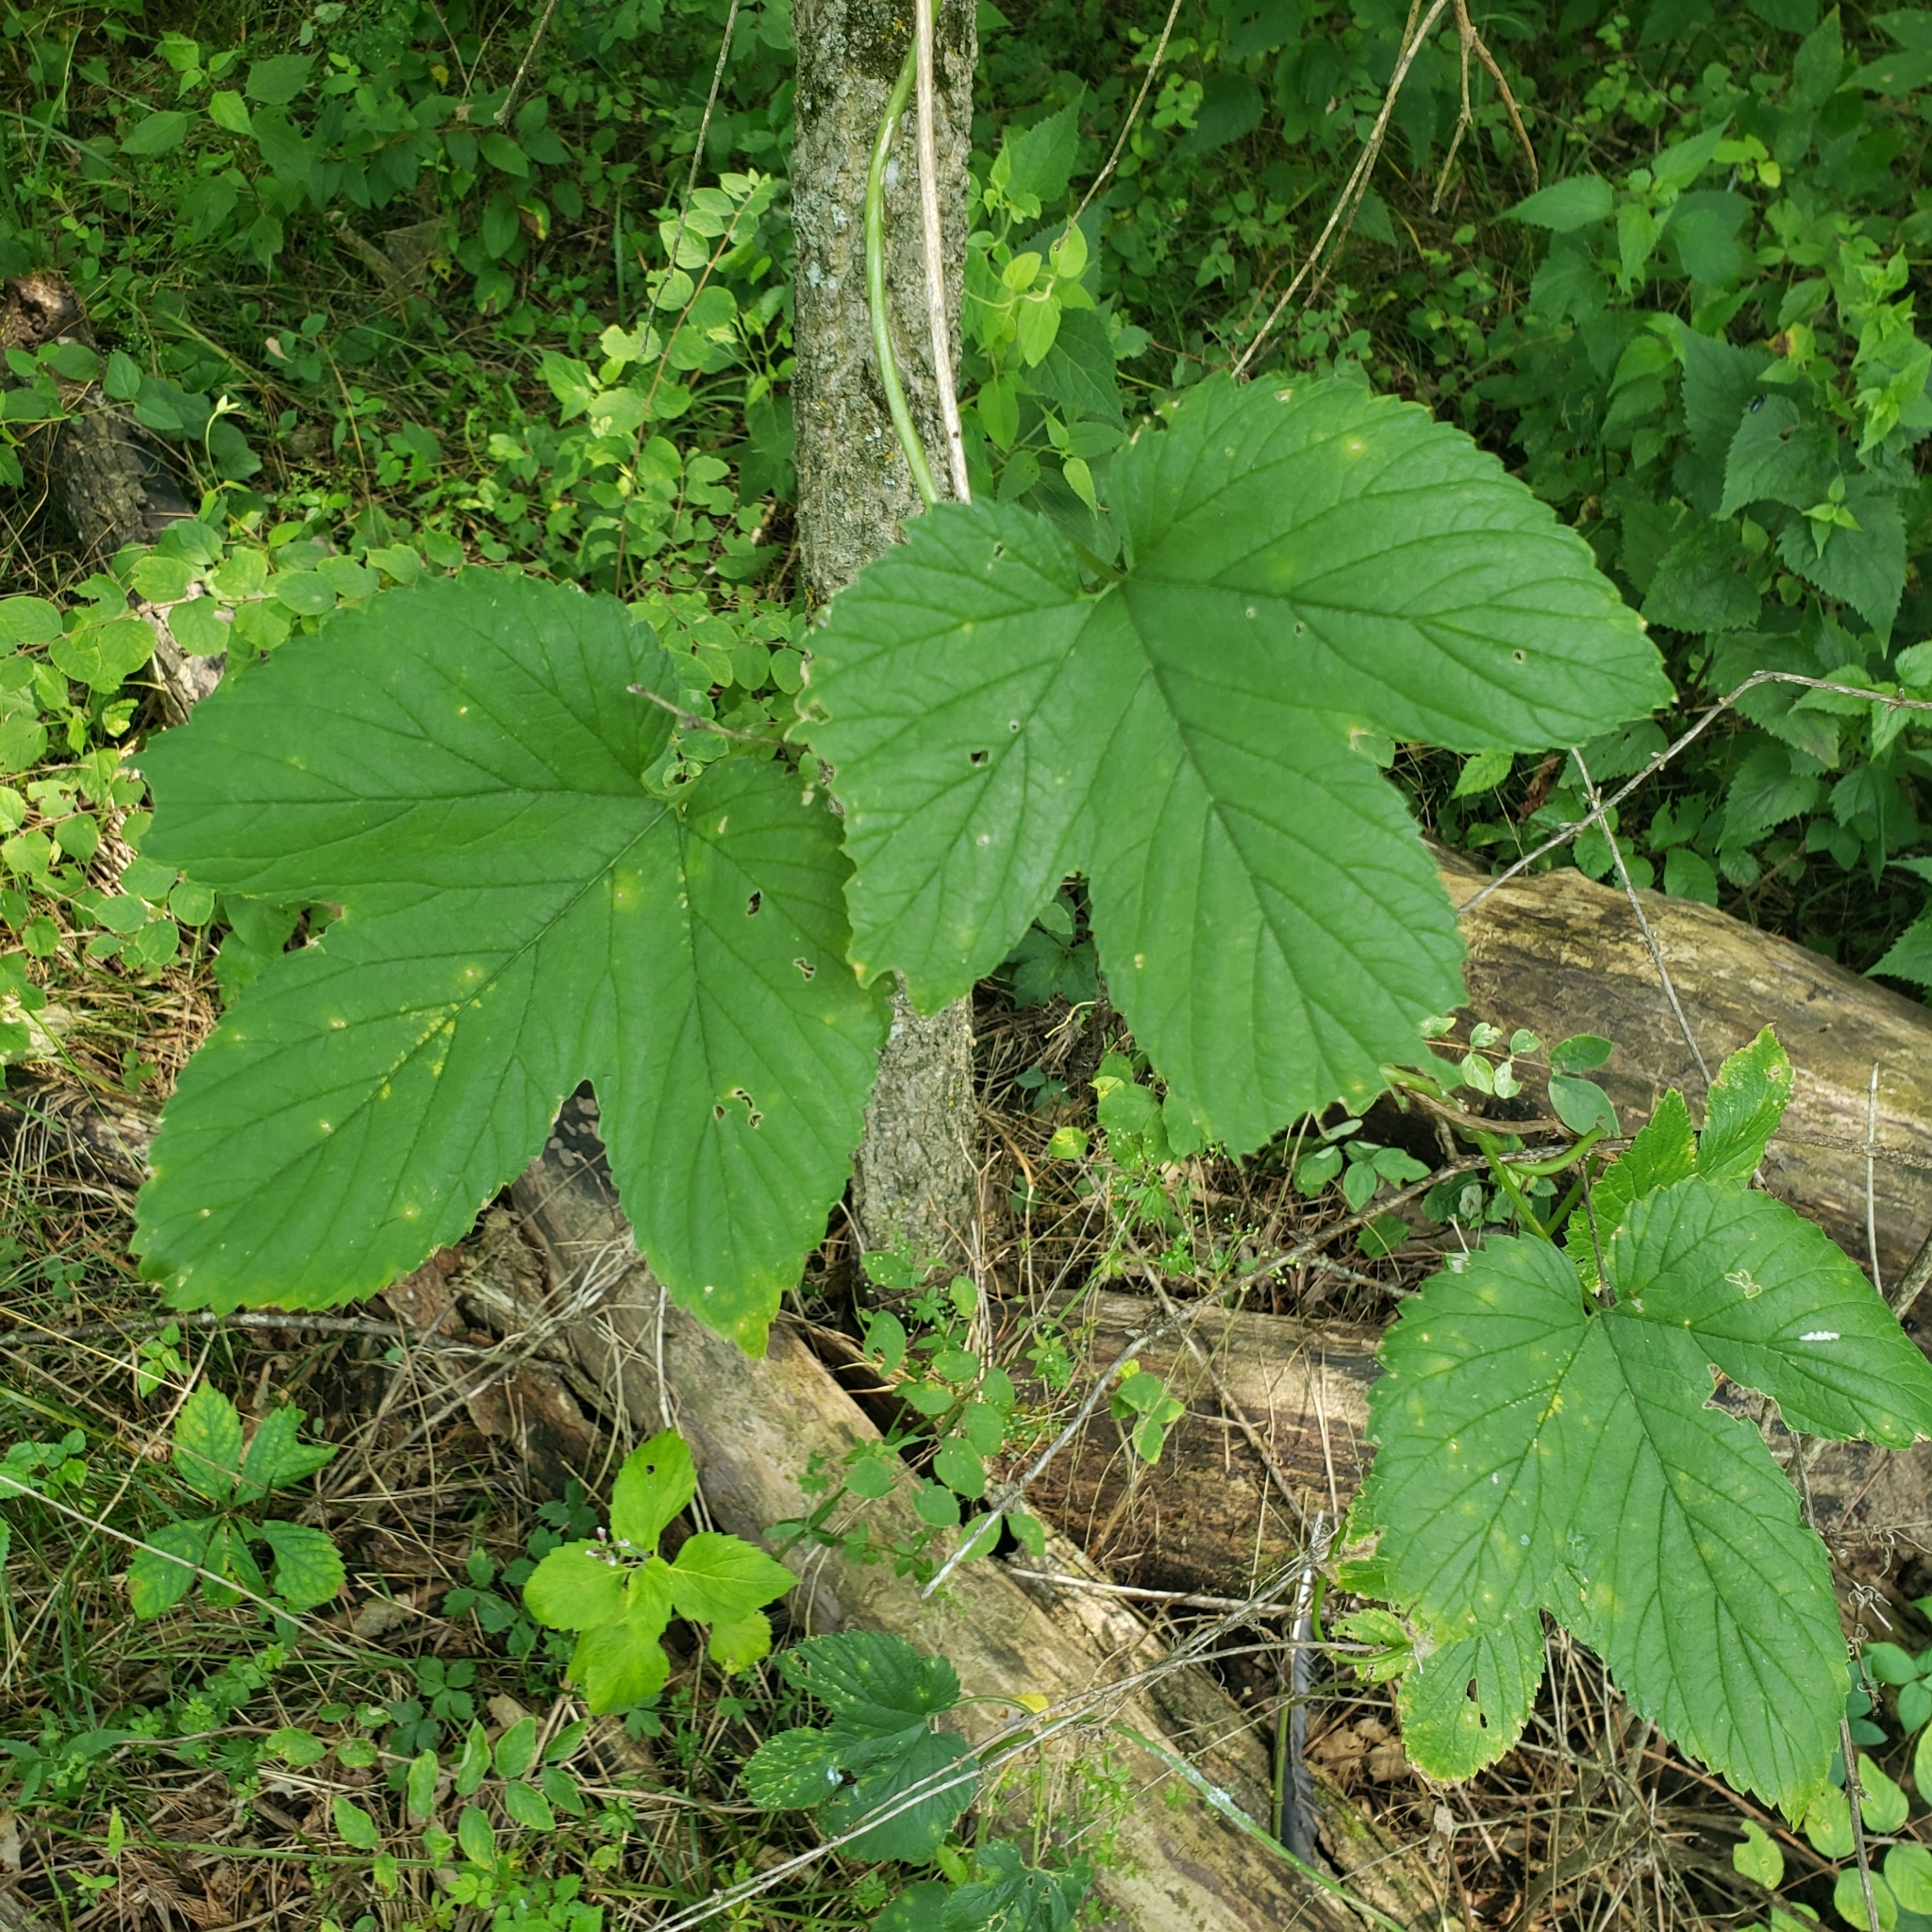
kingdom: Plantae
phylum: Tracheophyta
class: Magnoliopsida
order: Rosales
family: Cannabaceae
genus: Humulus
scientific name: Humulus lupulus
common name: Hop
